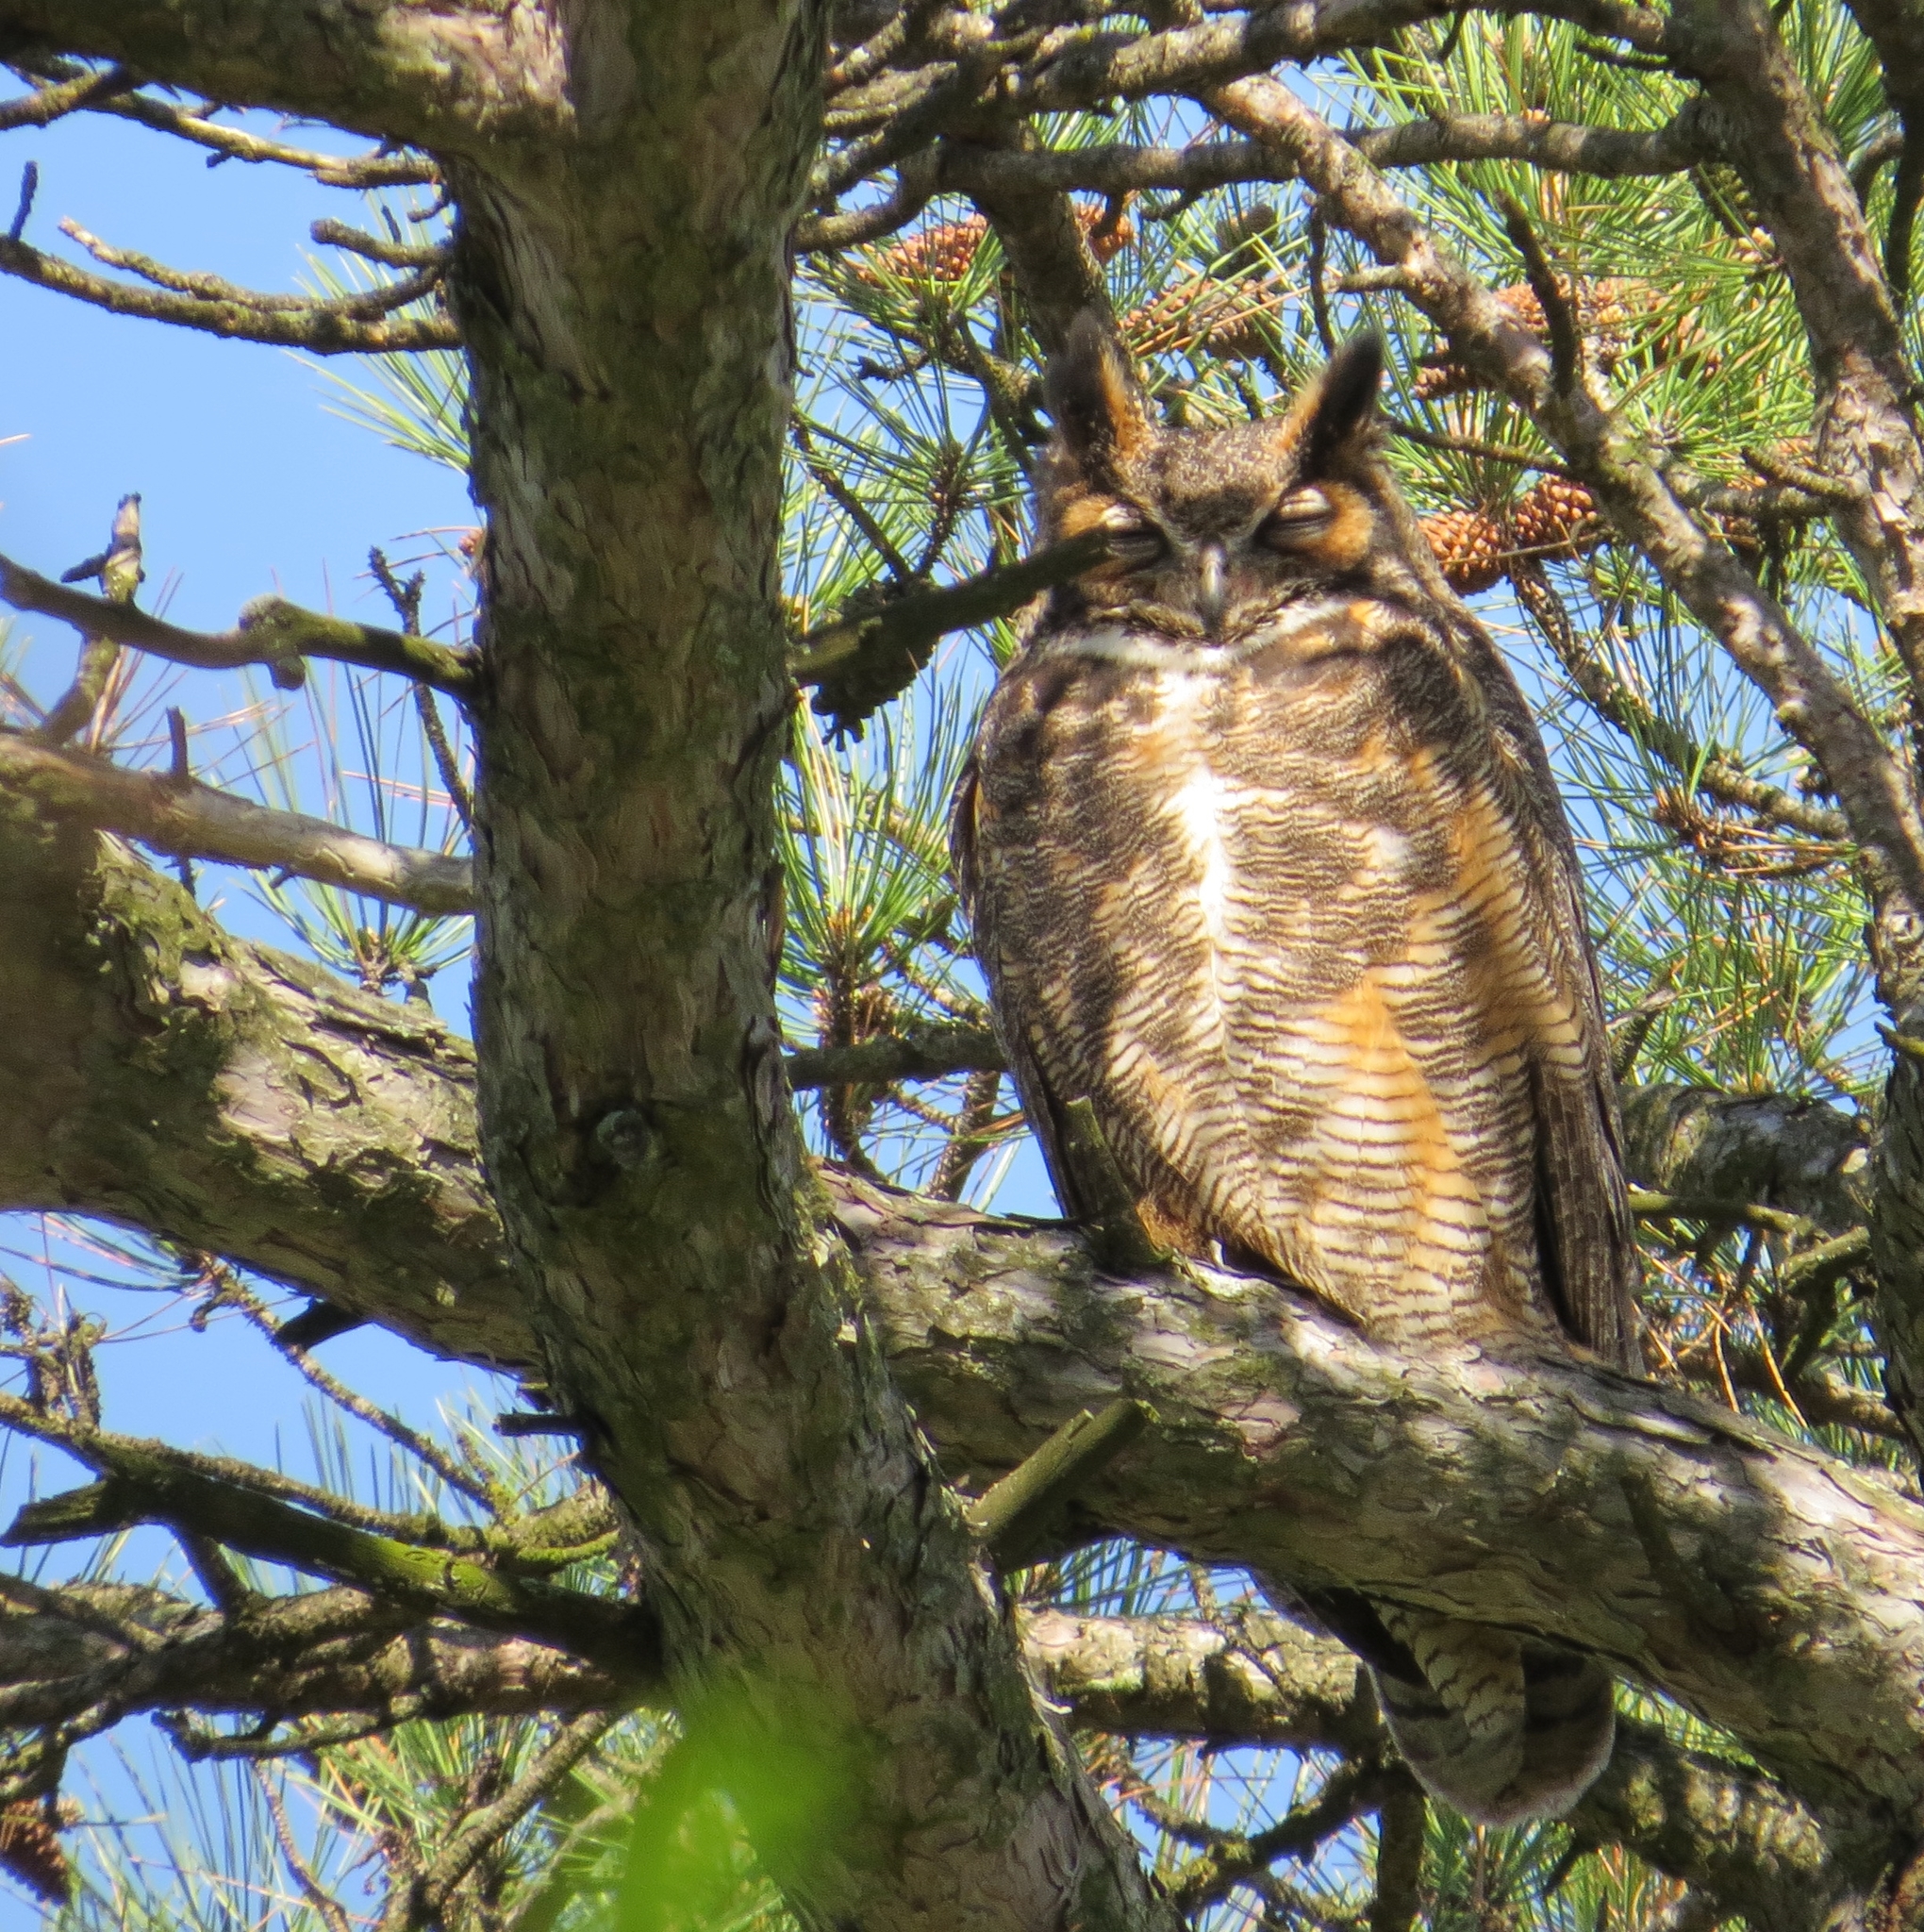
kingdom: Animalia
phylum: Chordata
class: Aves
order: Strigiformes
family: Strigidae
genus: Bubo
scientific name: Bubo virginianus
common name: Great horned owl
